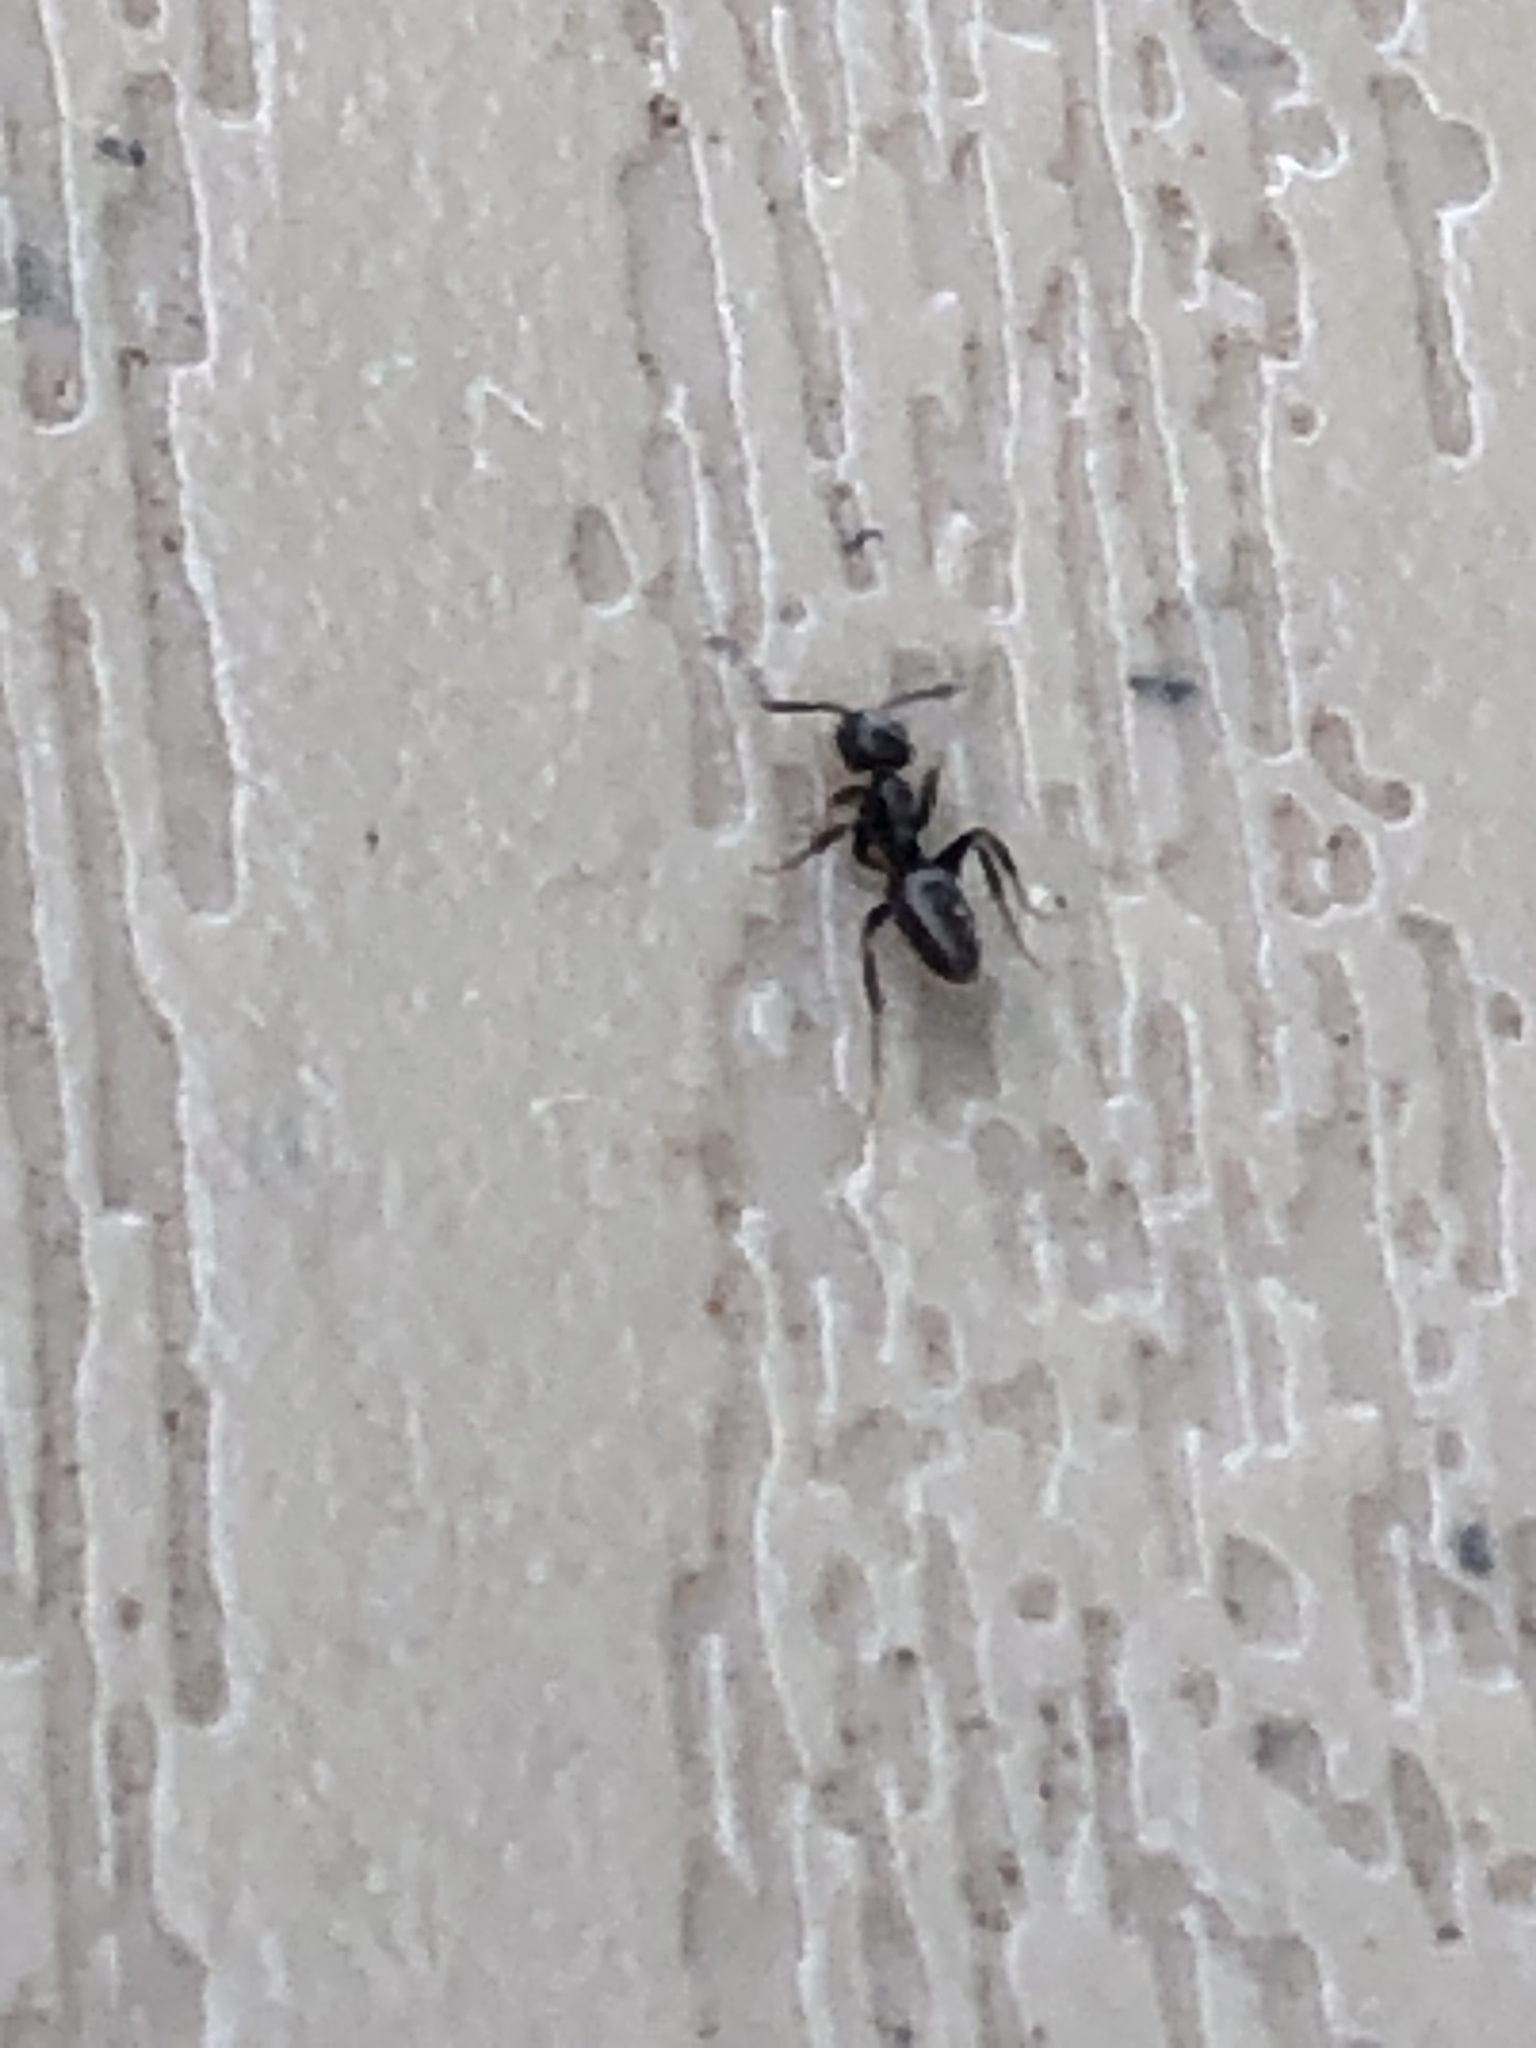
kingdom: Animalia
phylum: Arthropoda
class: Insecta
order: Hymenoptera
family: Formicidae
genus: Tapinoma
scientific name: Tapinoma sessile
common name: Odorous house ant
